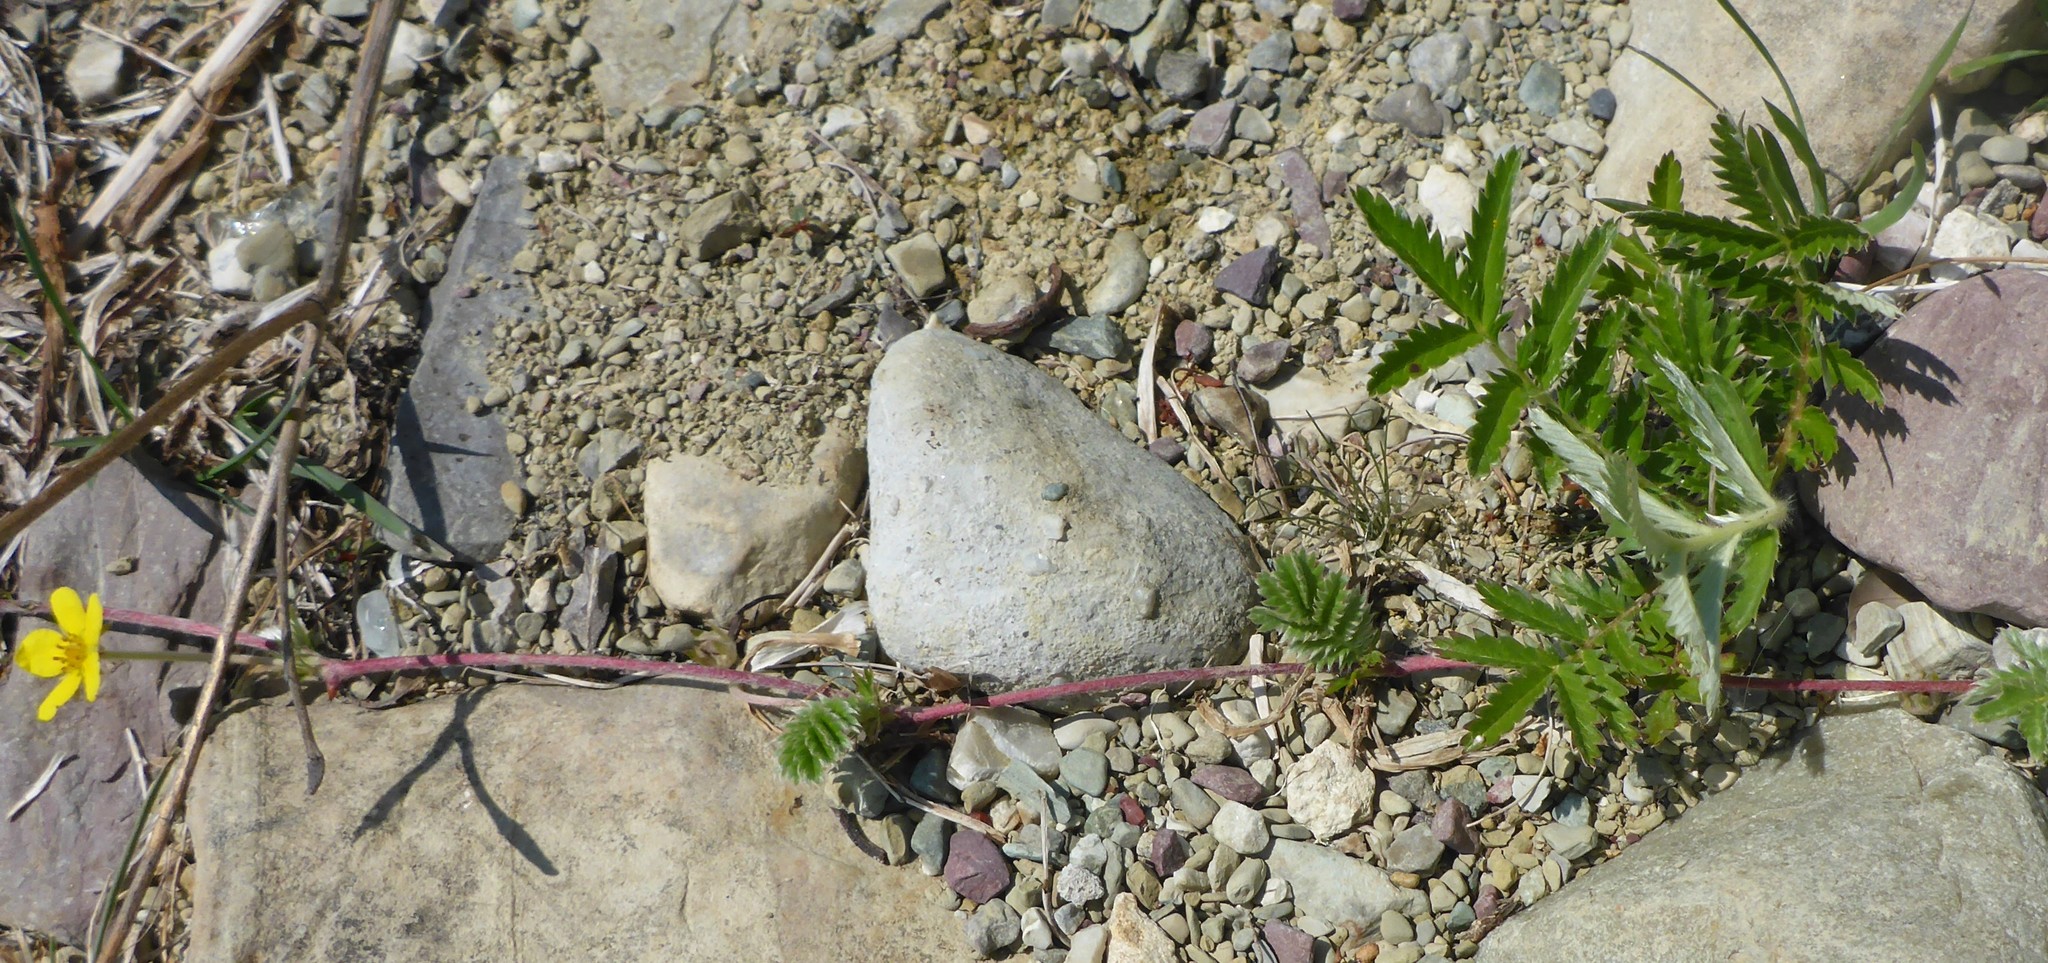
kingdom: Plantae
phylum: Tracheophyta
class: Magnoliopsida
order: Rosales
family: Rosaceae
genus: Argentina
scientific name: Argentina anserina
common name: Common silverweed
